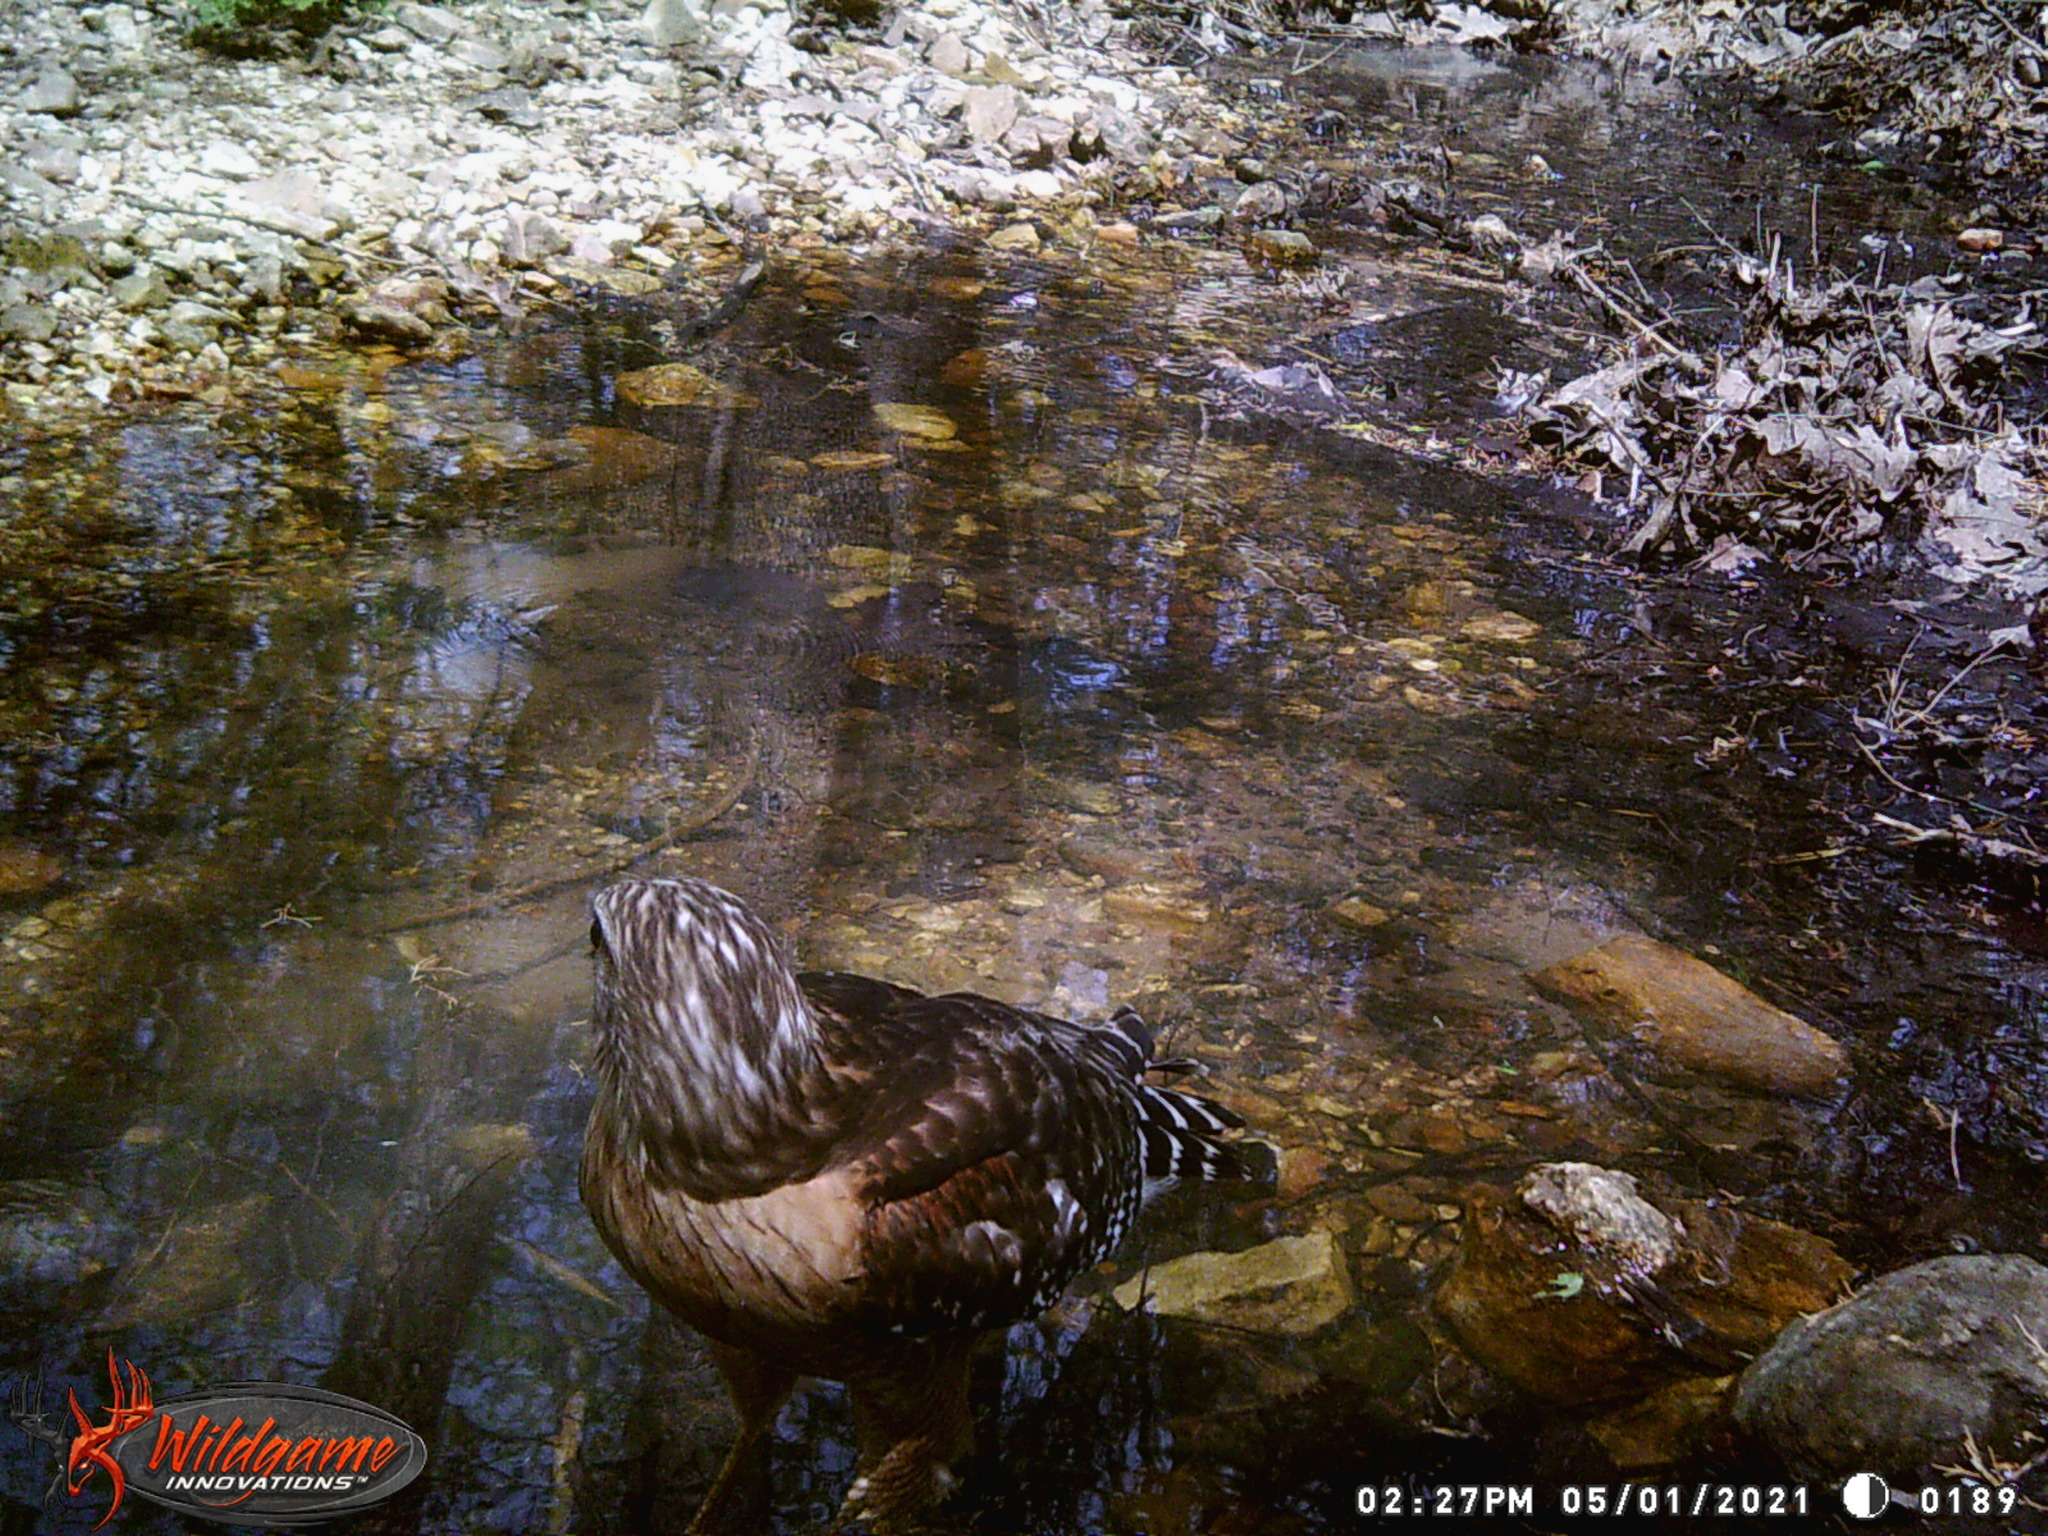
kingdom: Animalia
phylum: Chordata
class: Aves
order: Accipitriformes
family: Accipitridae
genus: Buteo
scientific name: Buteo lineatus
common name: Red-shouldered hawk
